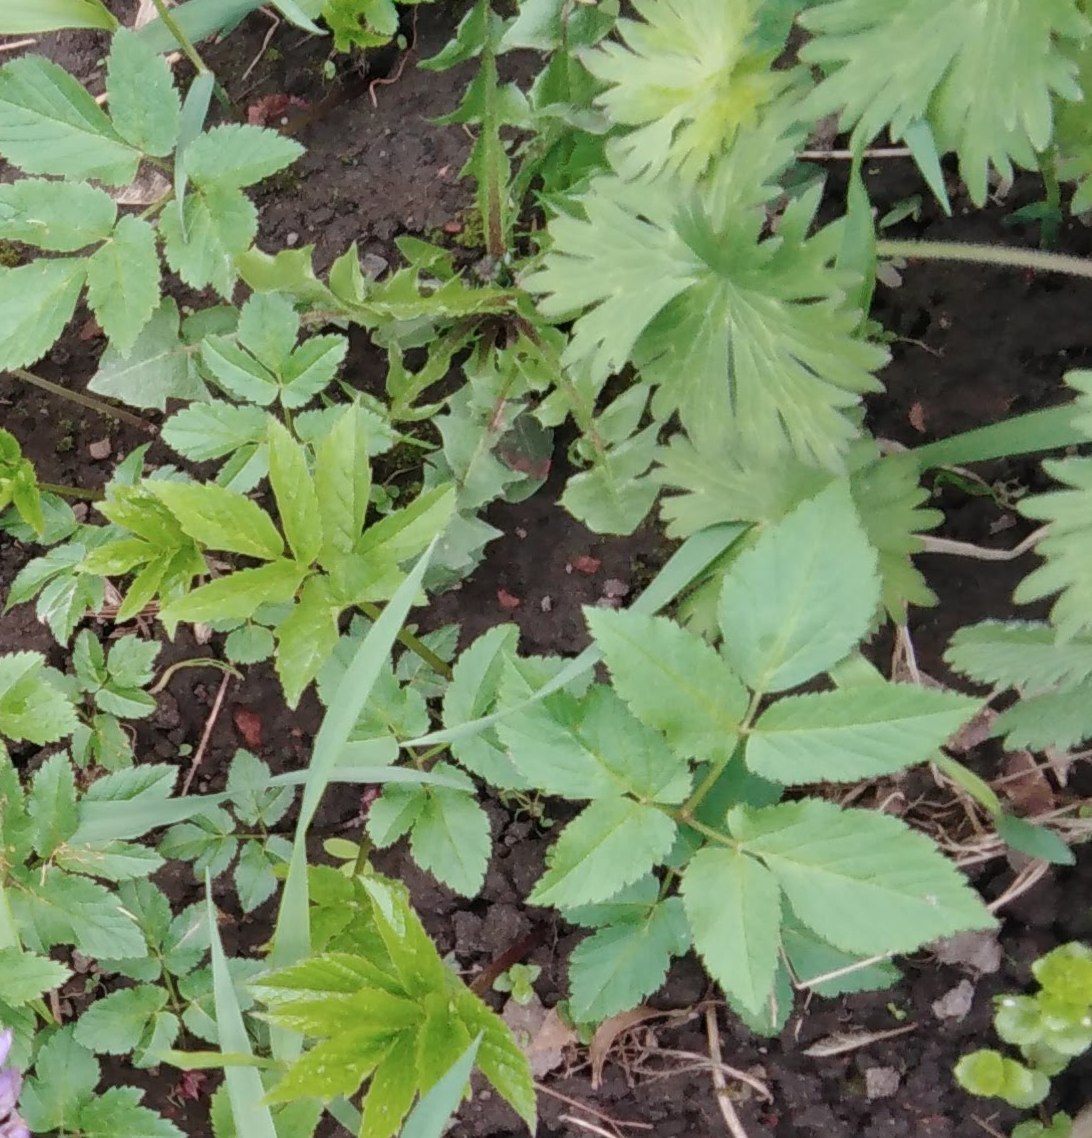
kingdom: Plantae
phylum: Tracheophyta
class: Magnoliopsida
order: Apiales
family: Apiaceae
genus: Aegopodium
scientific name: Aegopodium podagraria
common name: Ground-elder
